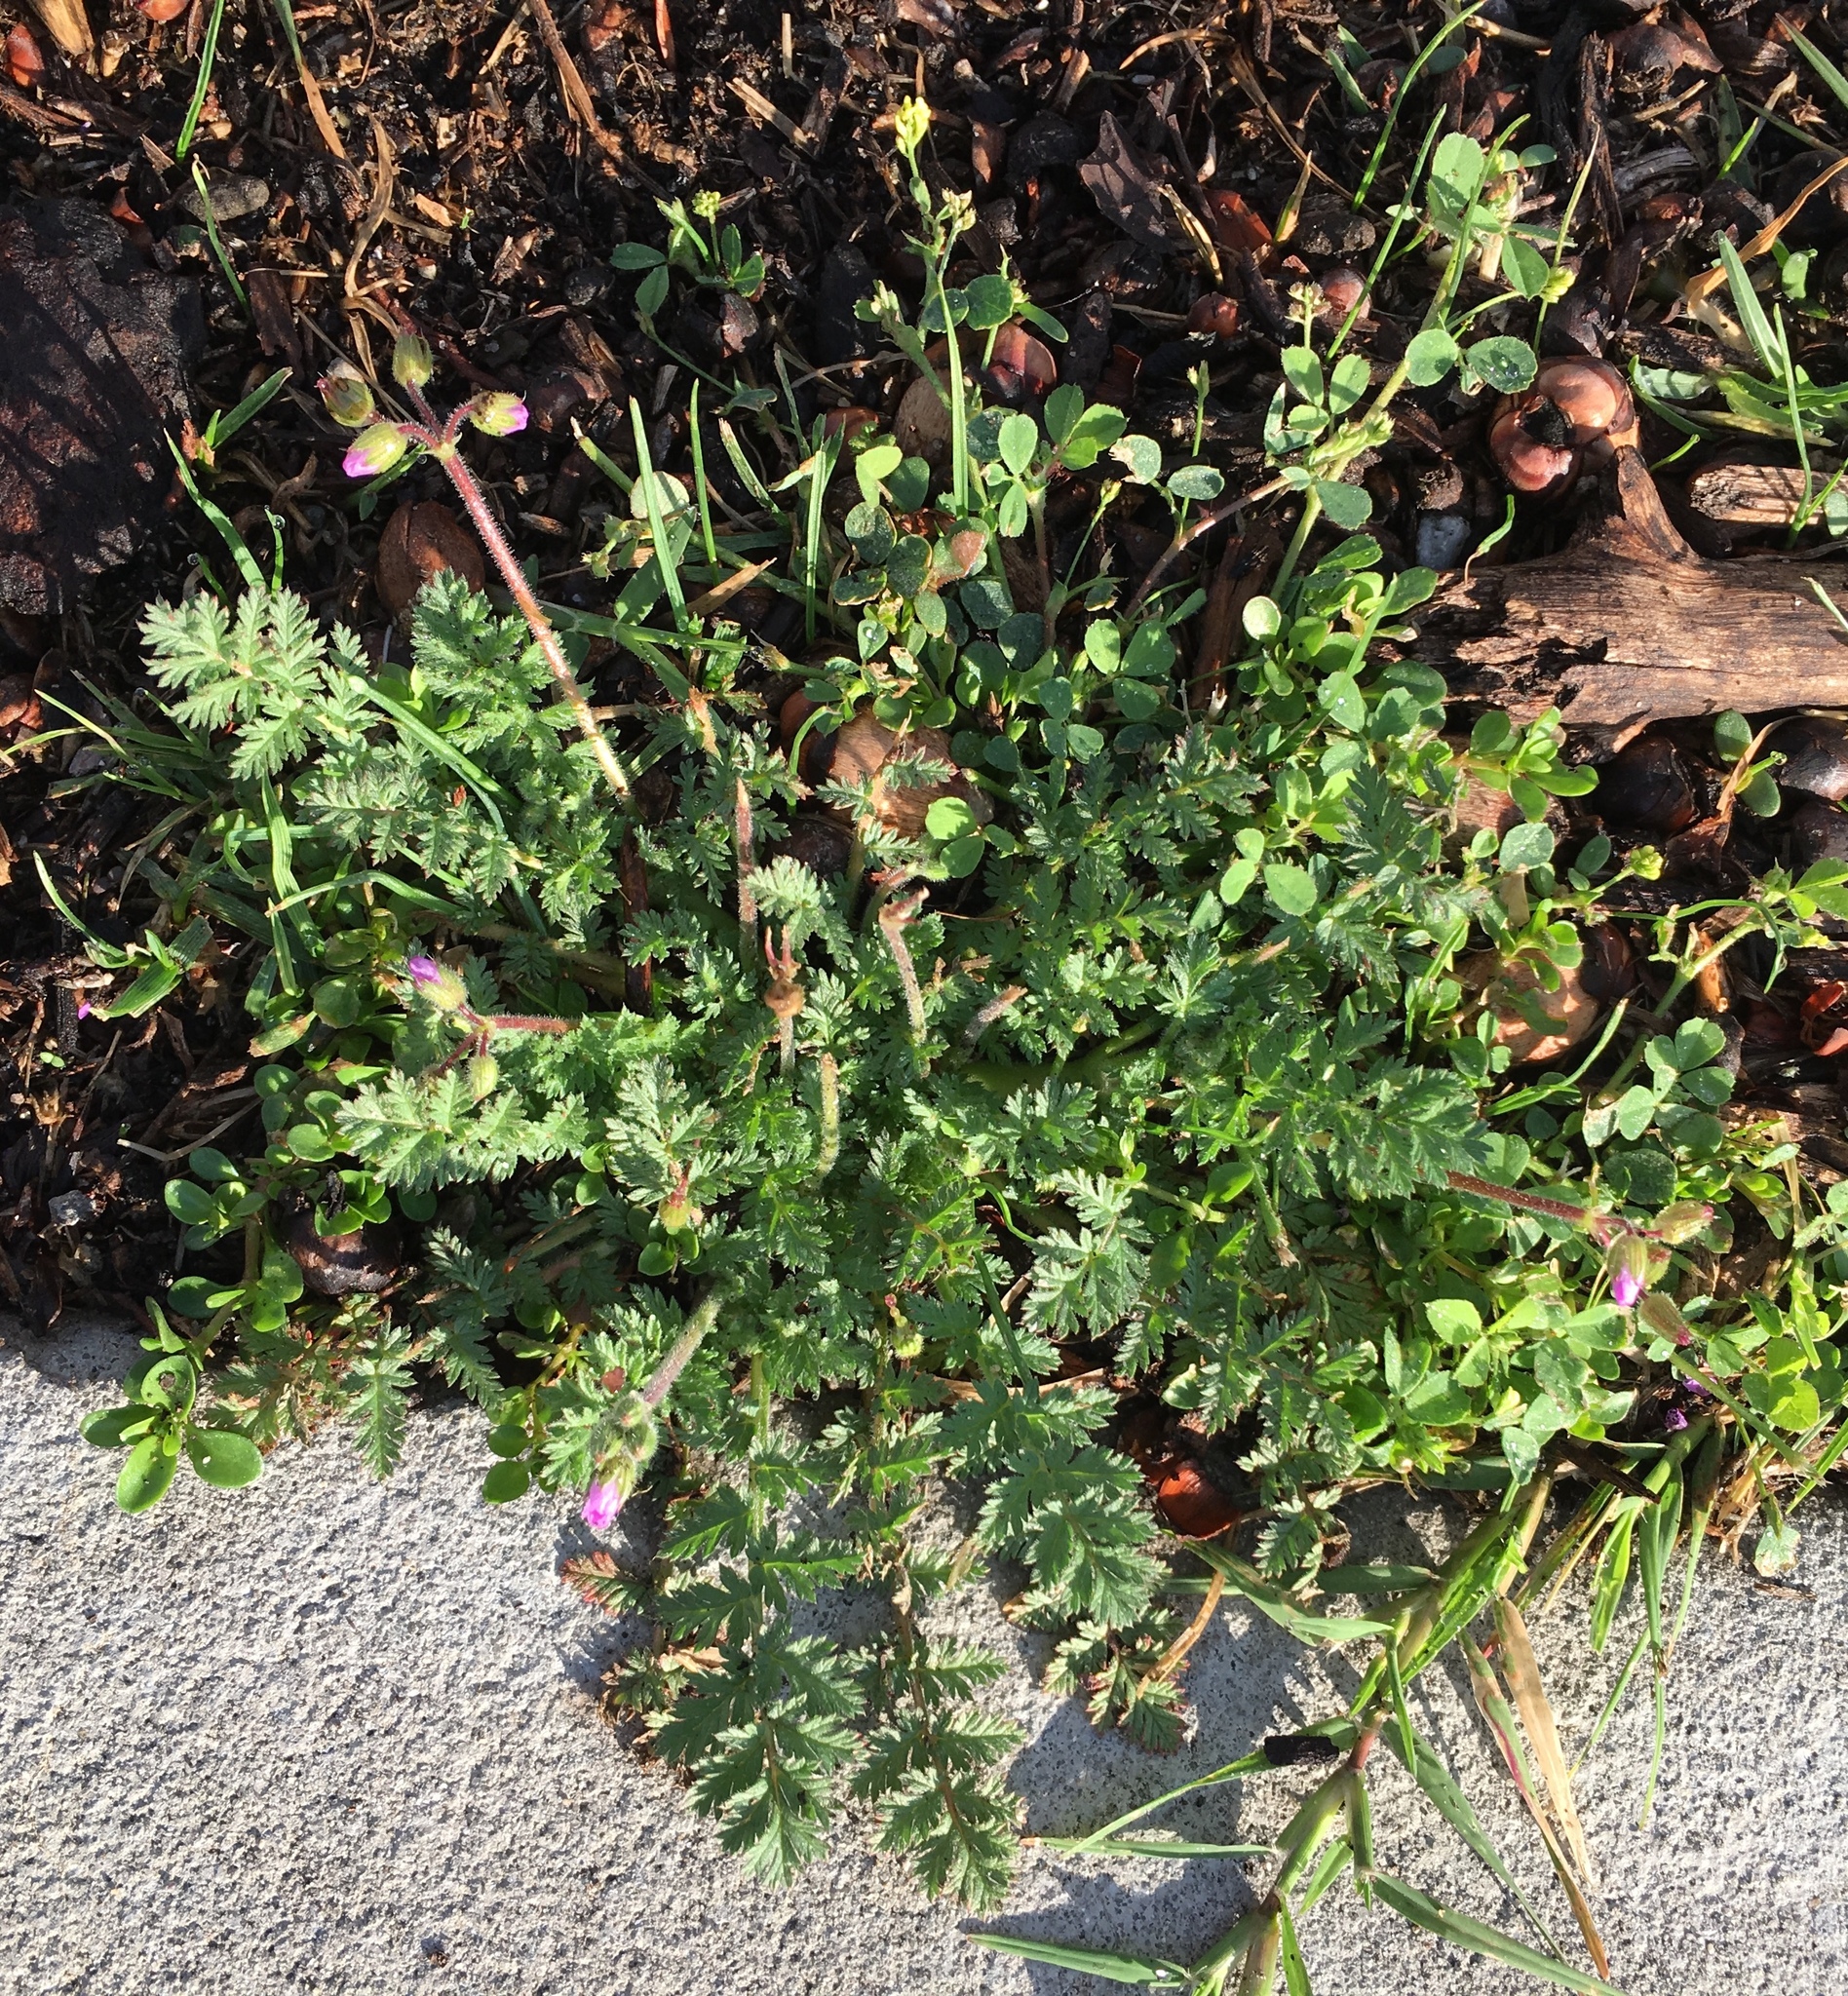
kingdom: Plantae
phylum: Tracheophyta
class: Magnoliopsida
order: Geraniales
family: Geraniaceae
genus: Erodium
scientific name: Erodium cicutarium
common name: Common stork's-bill
